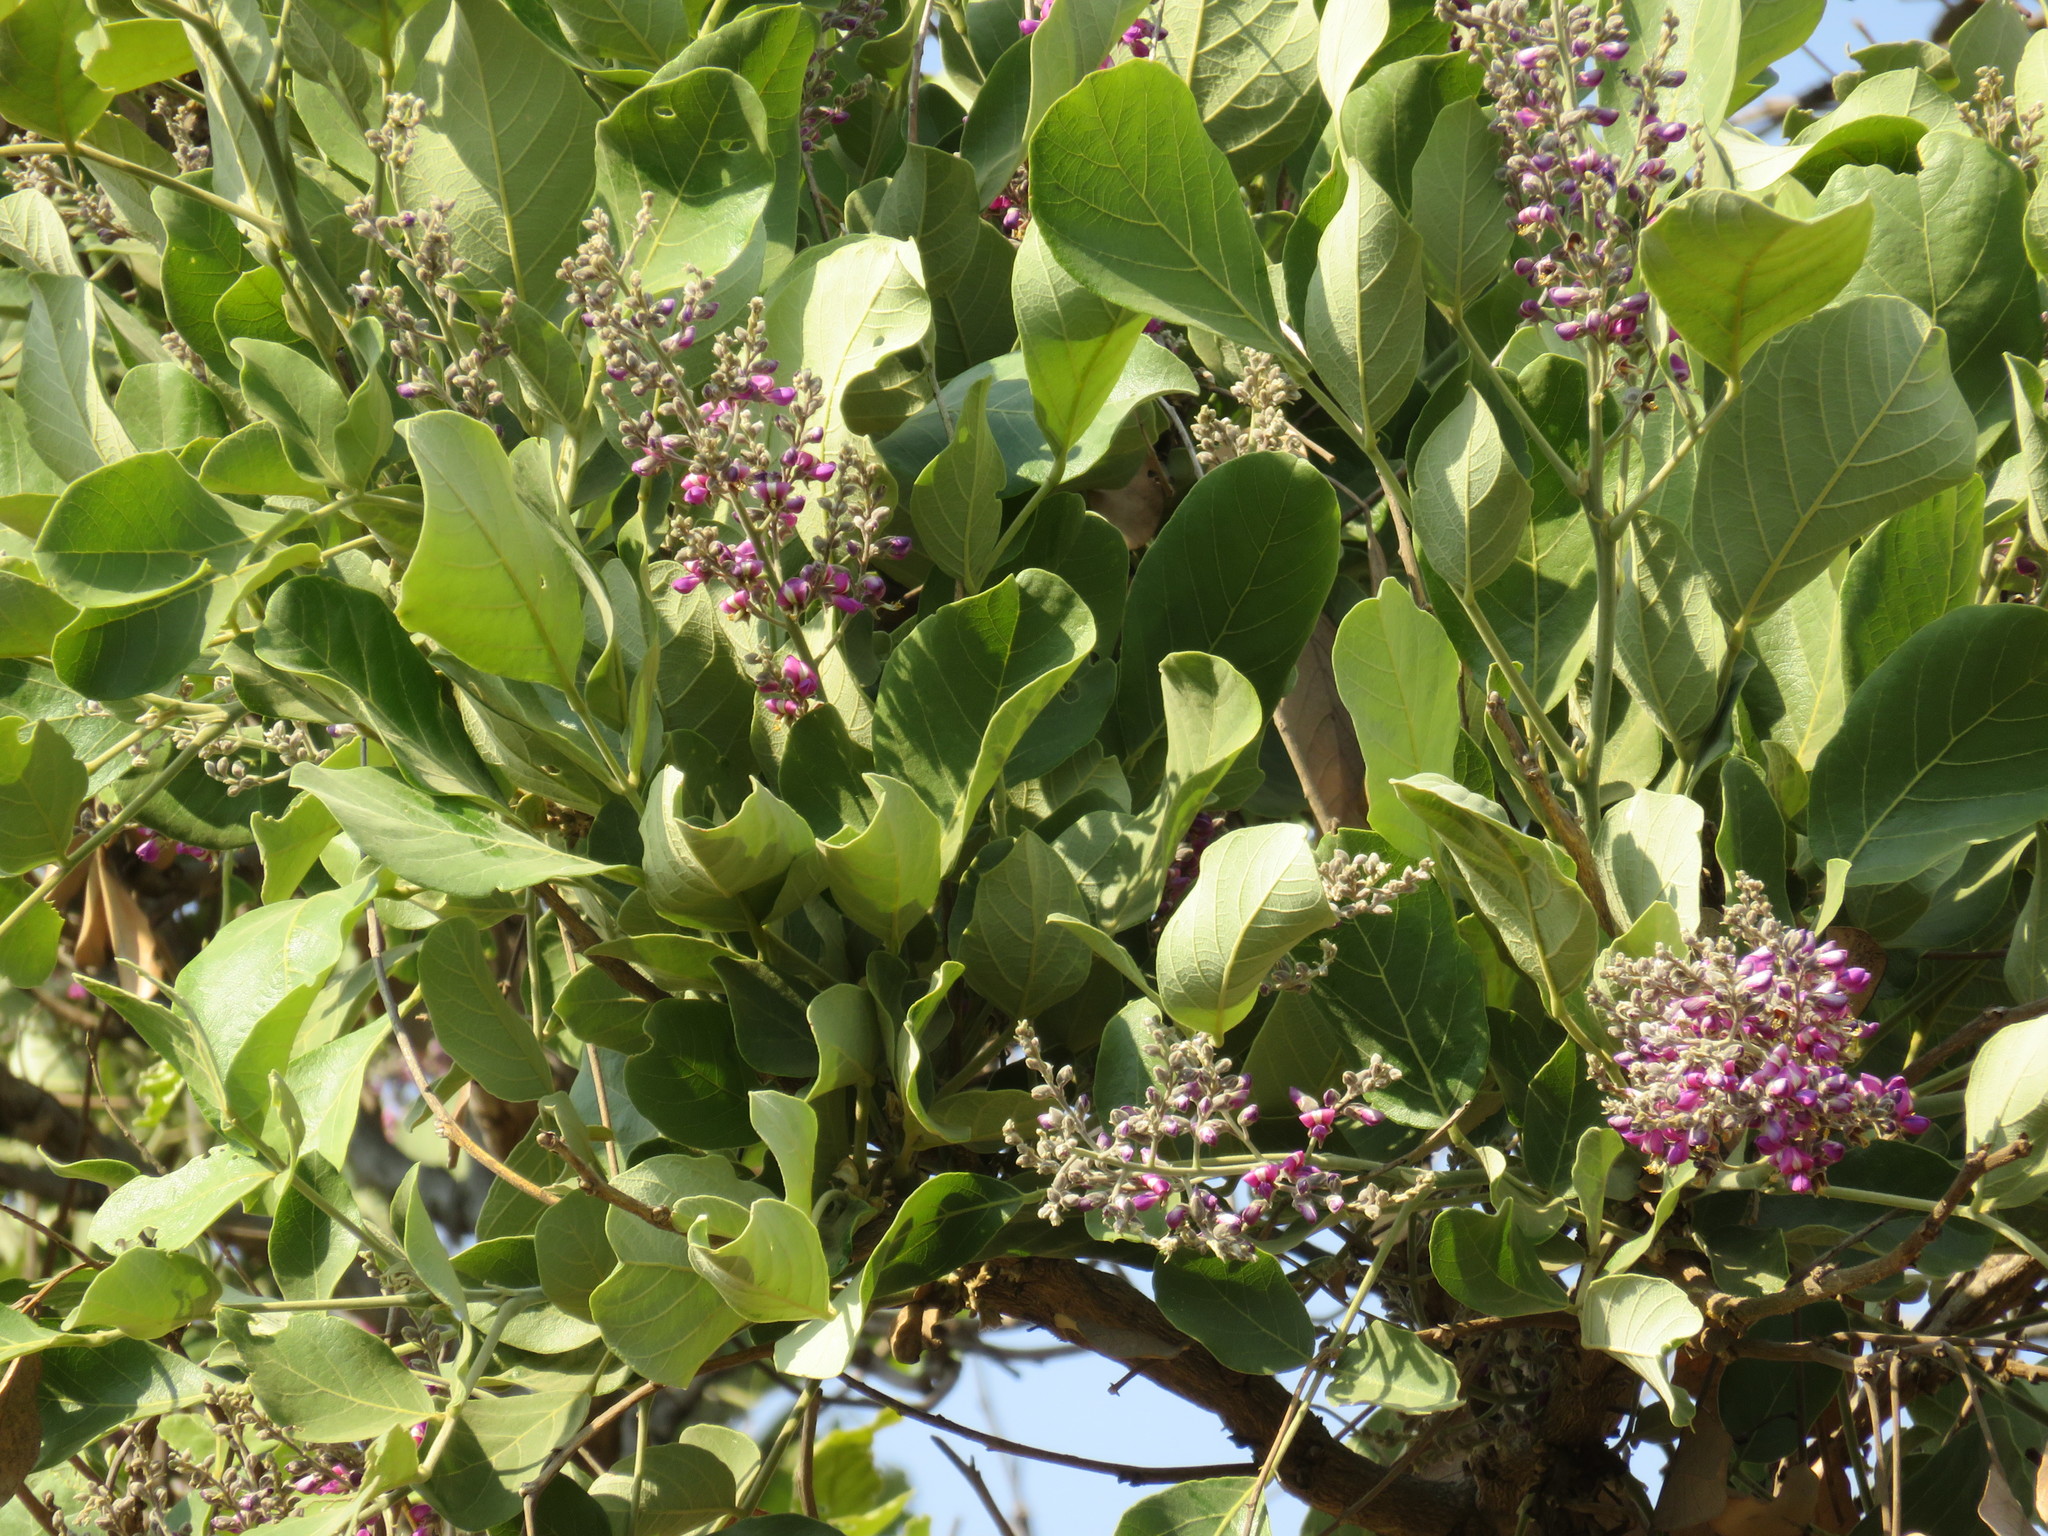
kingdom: Plantae
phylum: Tracheophyta
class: Magnoliopsida
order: Fabales
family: Fabaceae
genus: Philenoptera
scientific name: Philenoptera violacea
